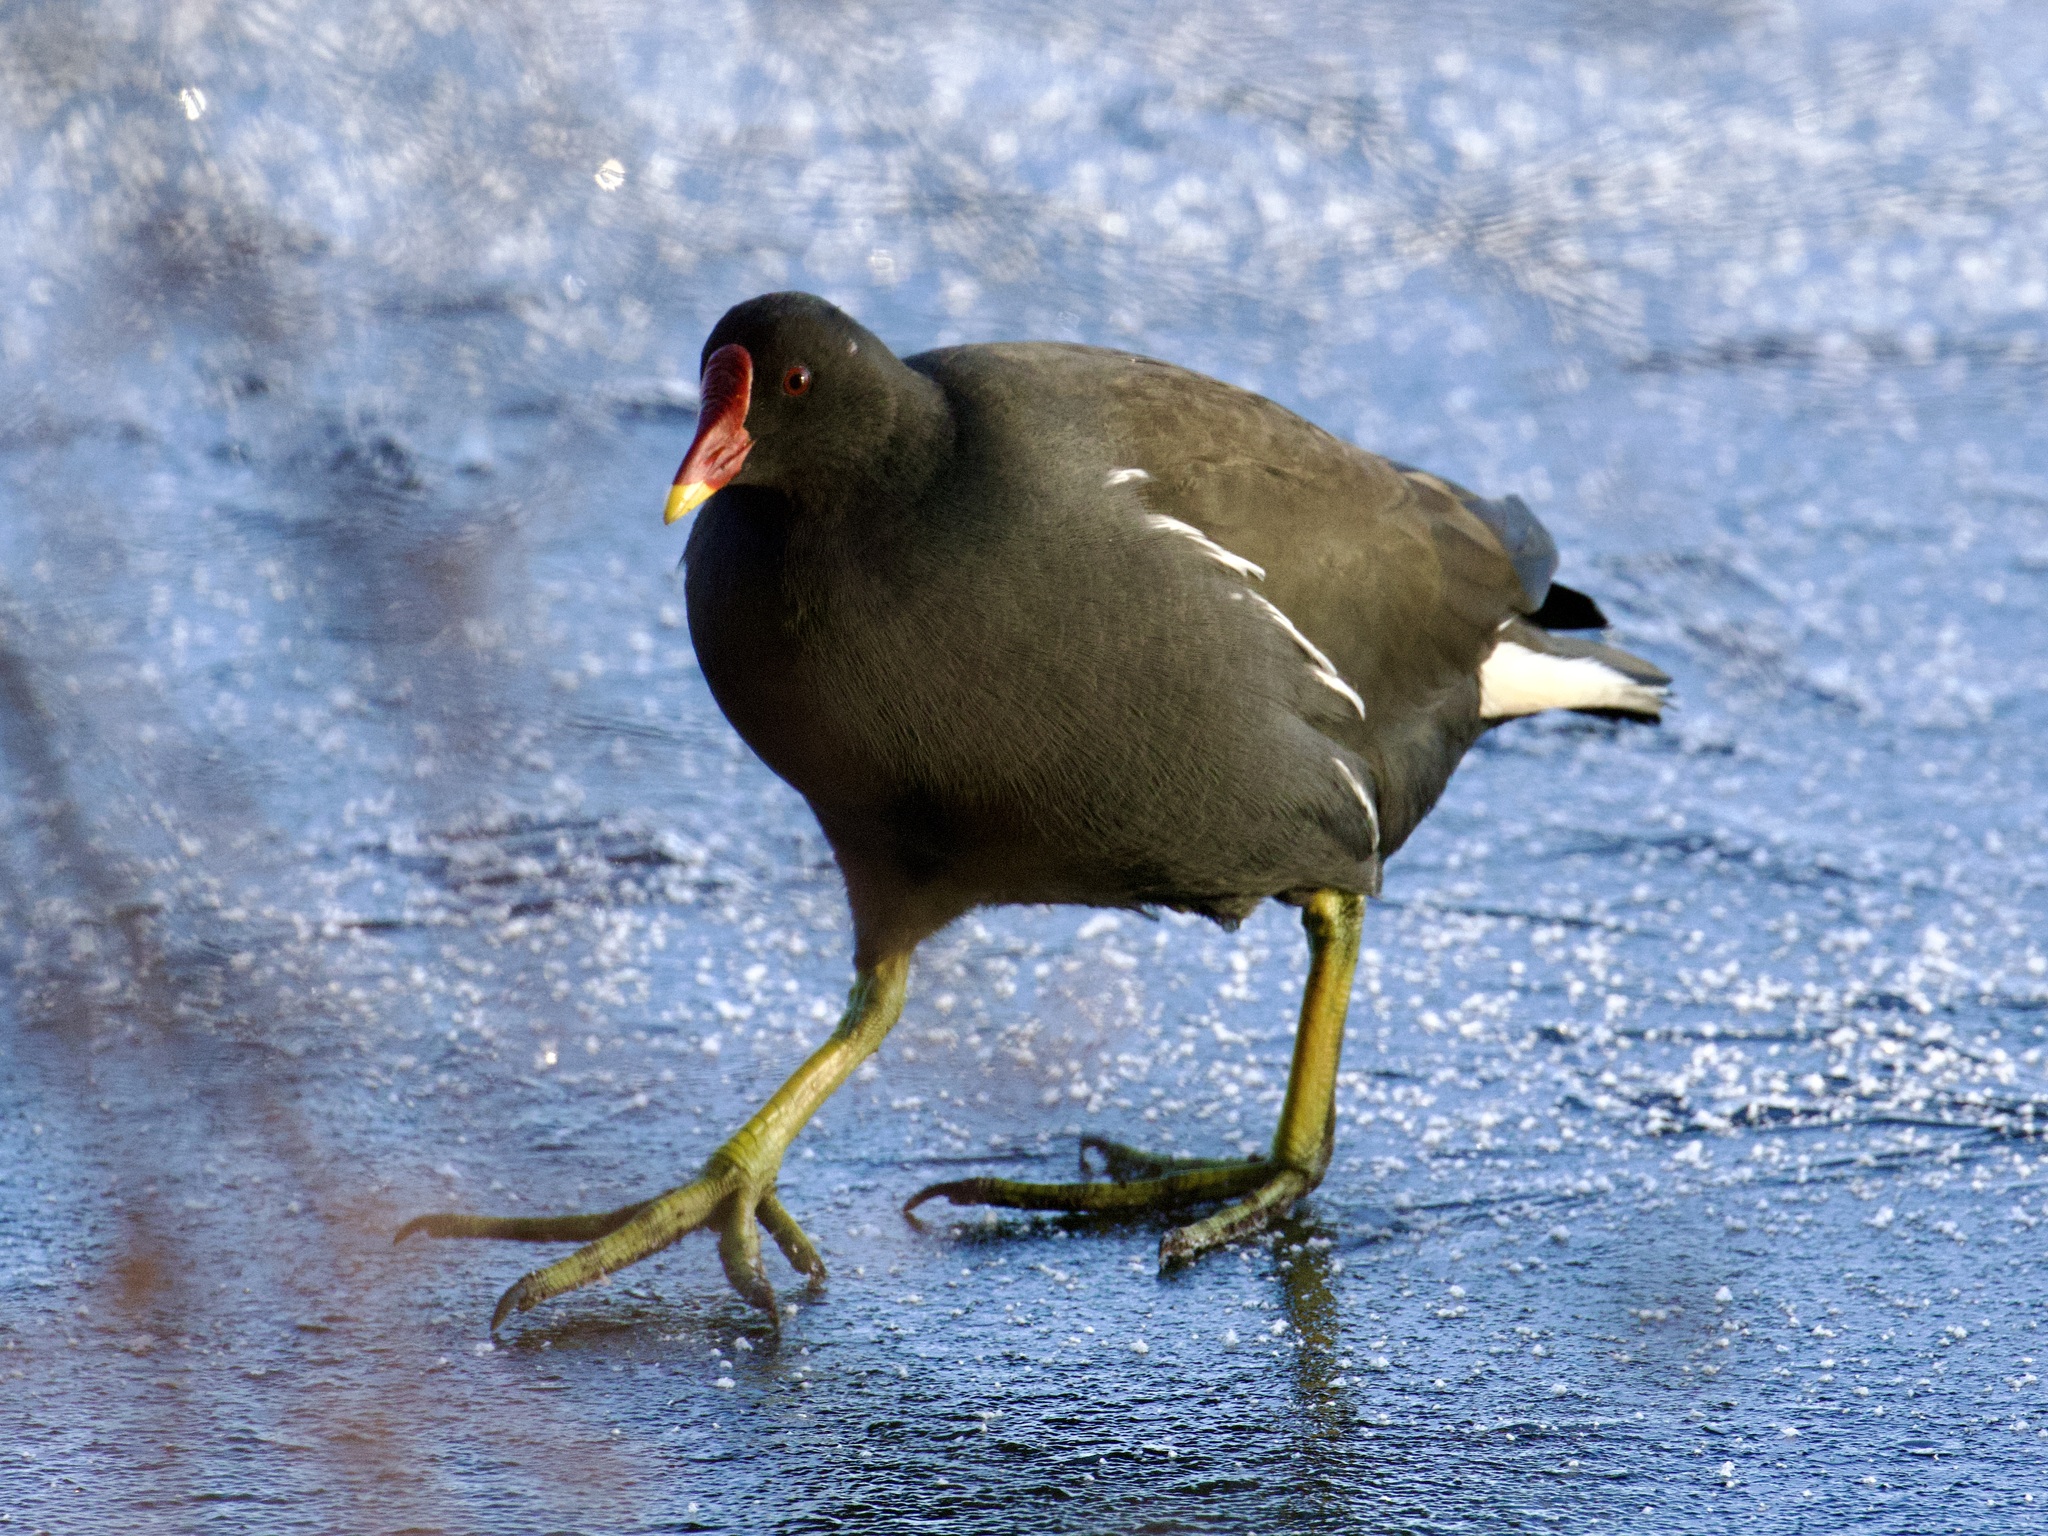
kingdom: Animalia
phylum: Chordata
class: Aves
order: Gruiformes
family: Rallidae
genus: Gallinula
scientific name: Gallinula chloropus
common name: Common moorhen
